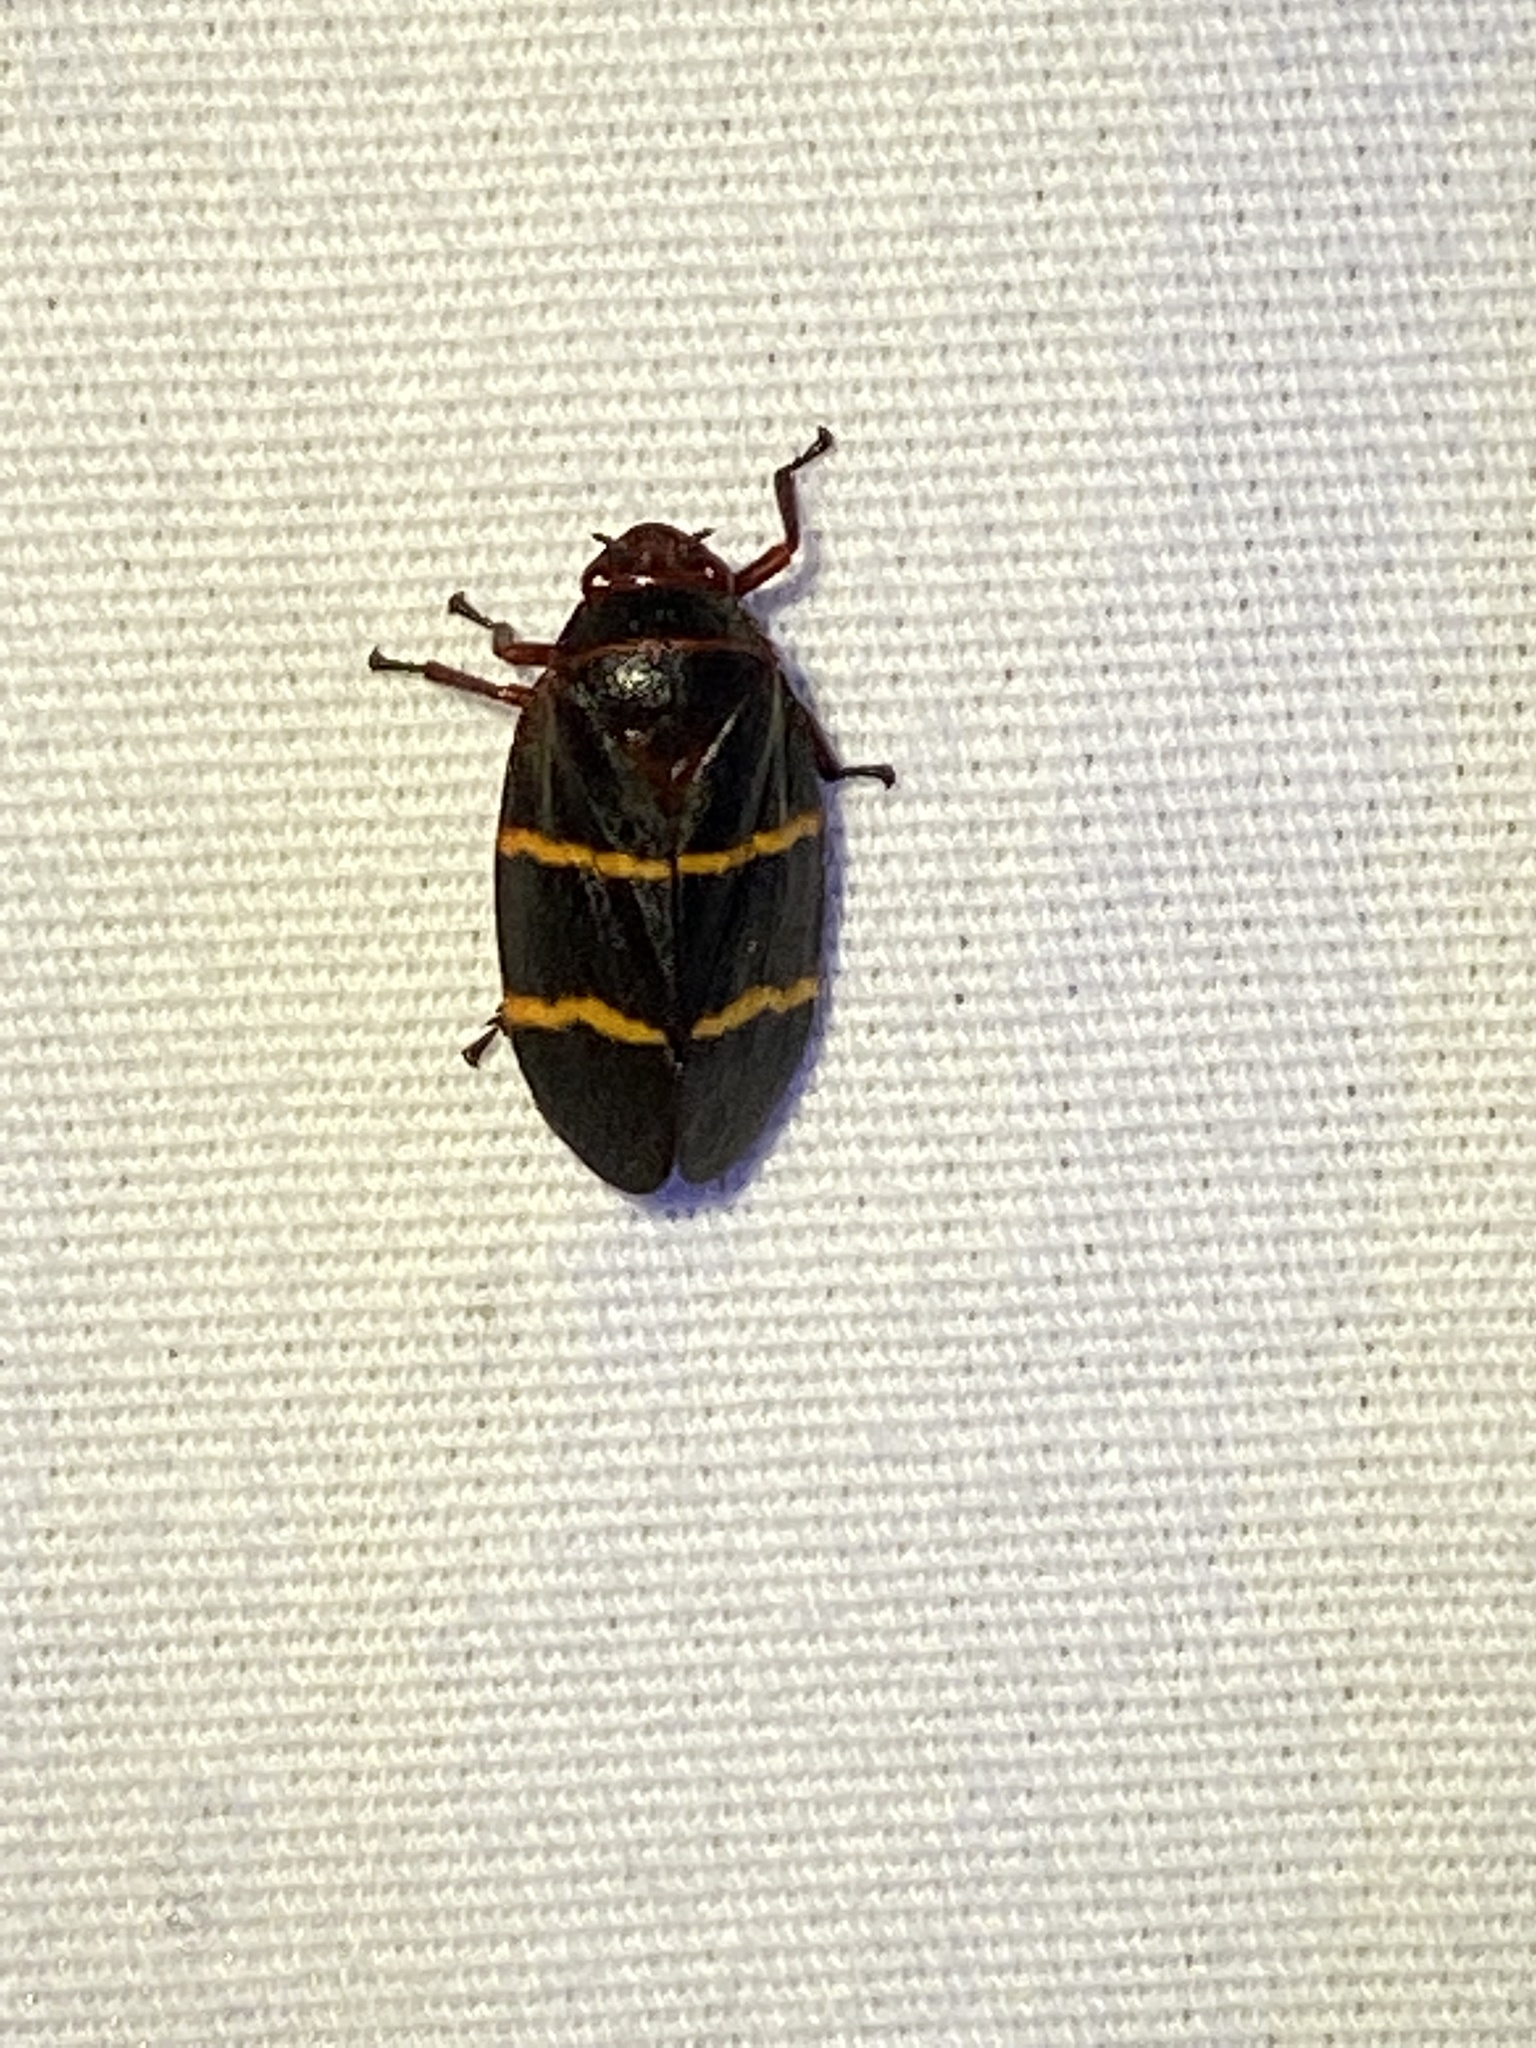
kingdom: Animalia
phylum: Arthropoda
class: Insecta
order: Hemiptera
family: Cercopidae
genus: Prosapia
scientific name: Prosapia bicincta
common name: Twolined spittlebug
